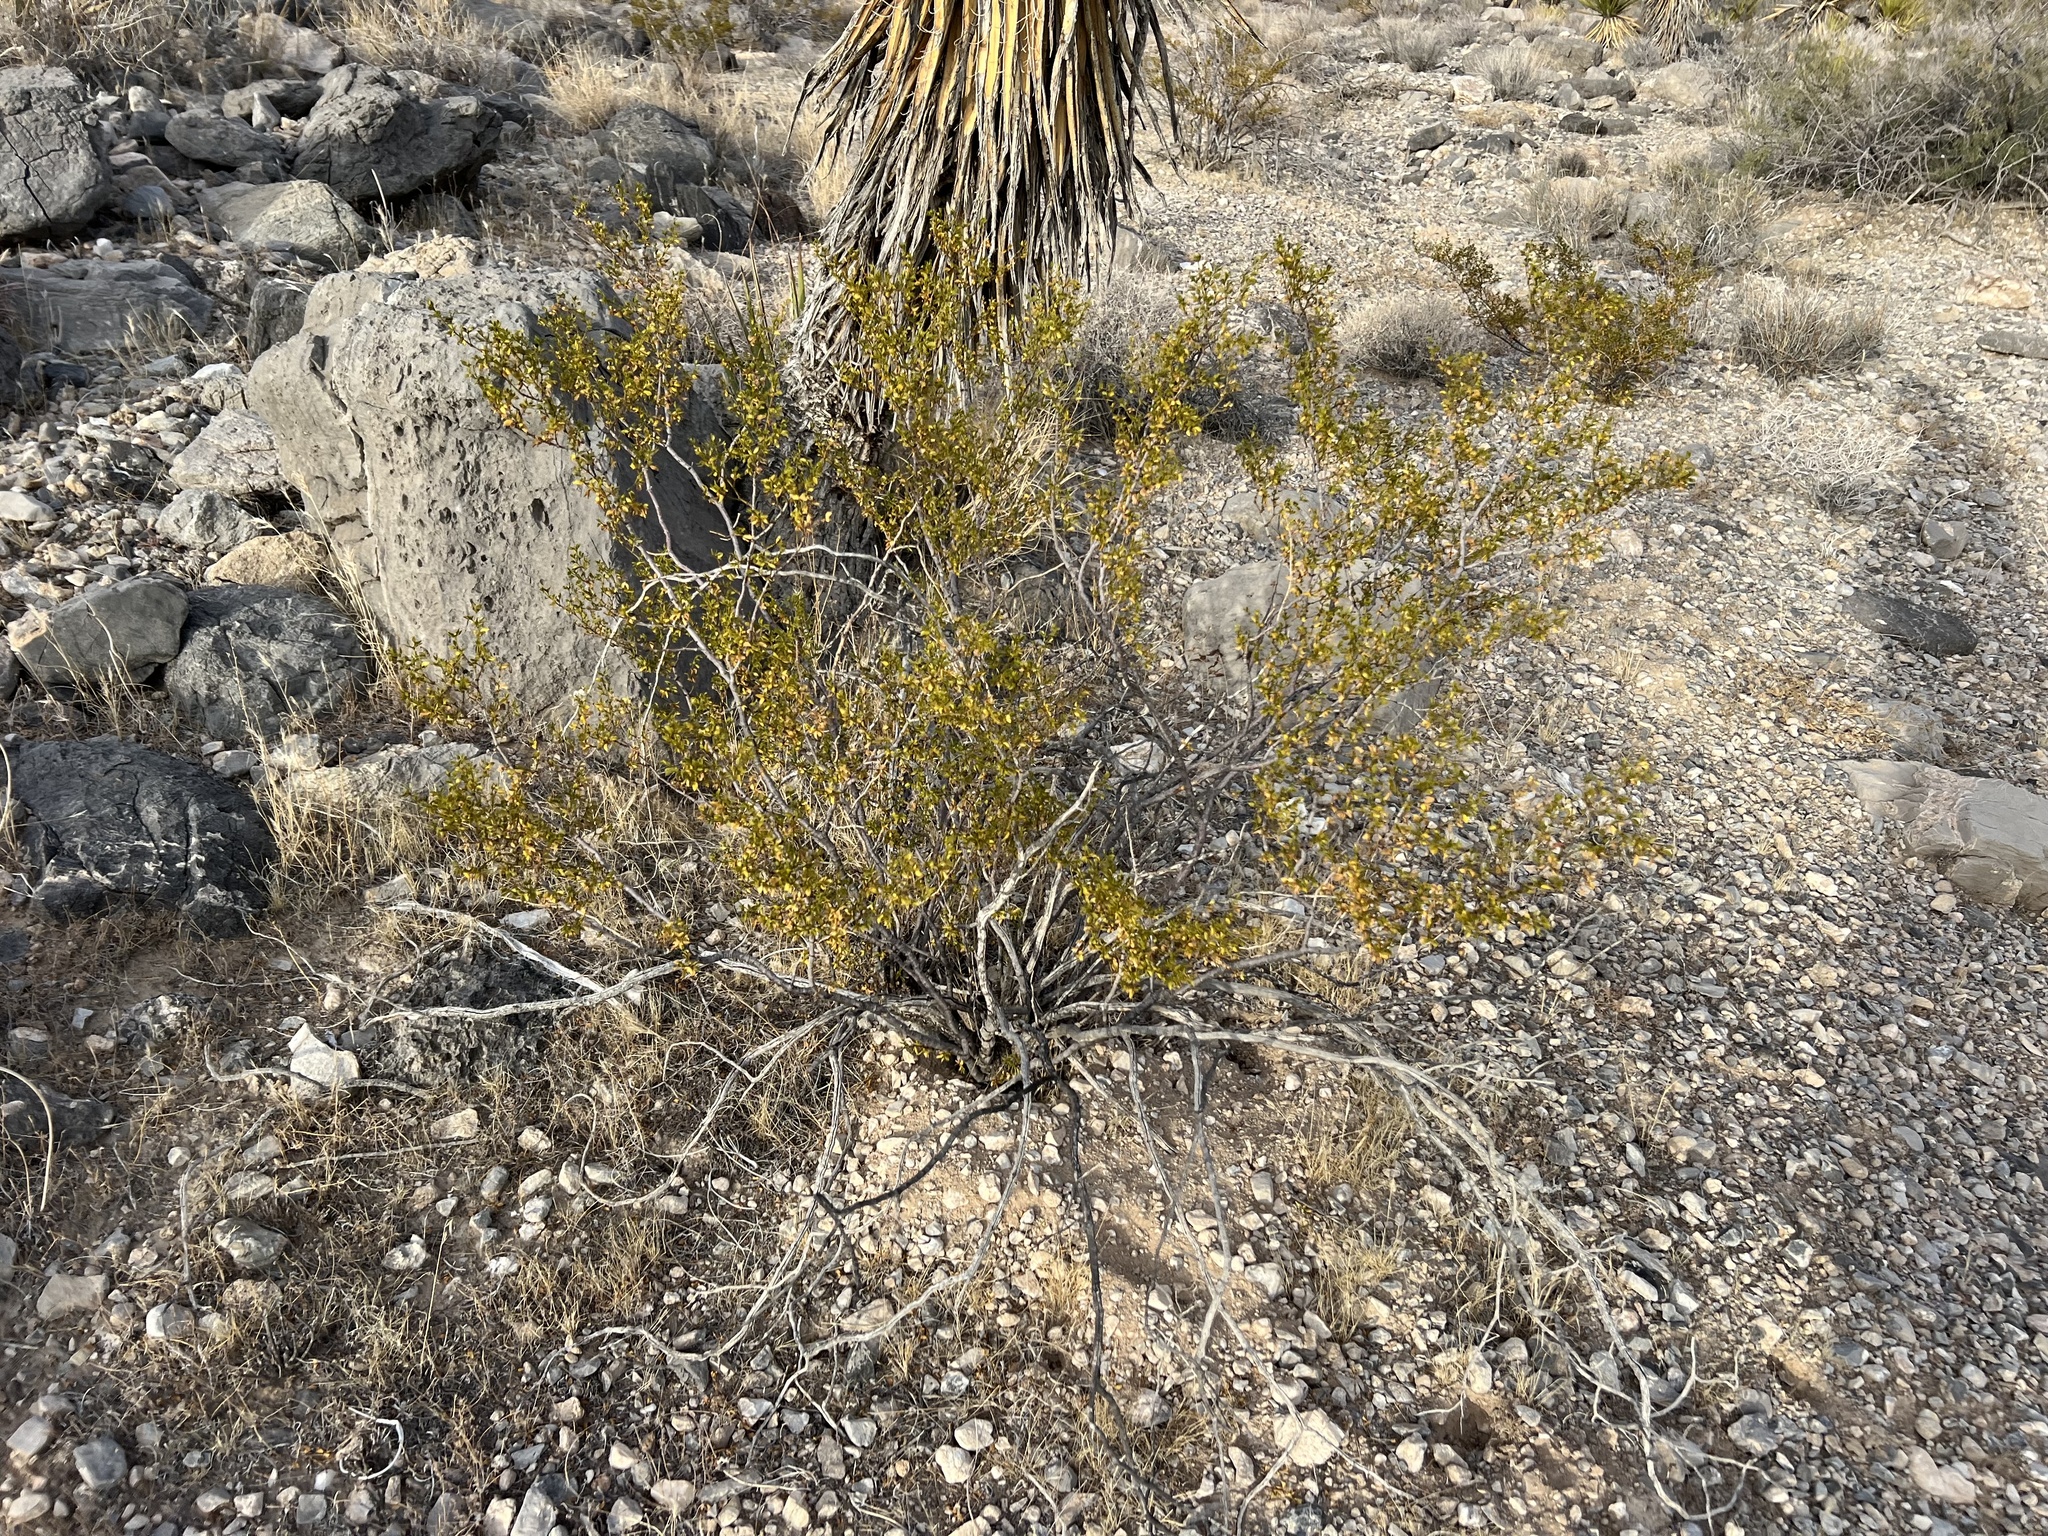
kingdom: Plantae
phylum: Tracheophyta
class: Magnoliopsida
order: Zygophyllales
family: Zygophyllaceae
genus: Larrea
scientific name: Larrea tridentata
